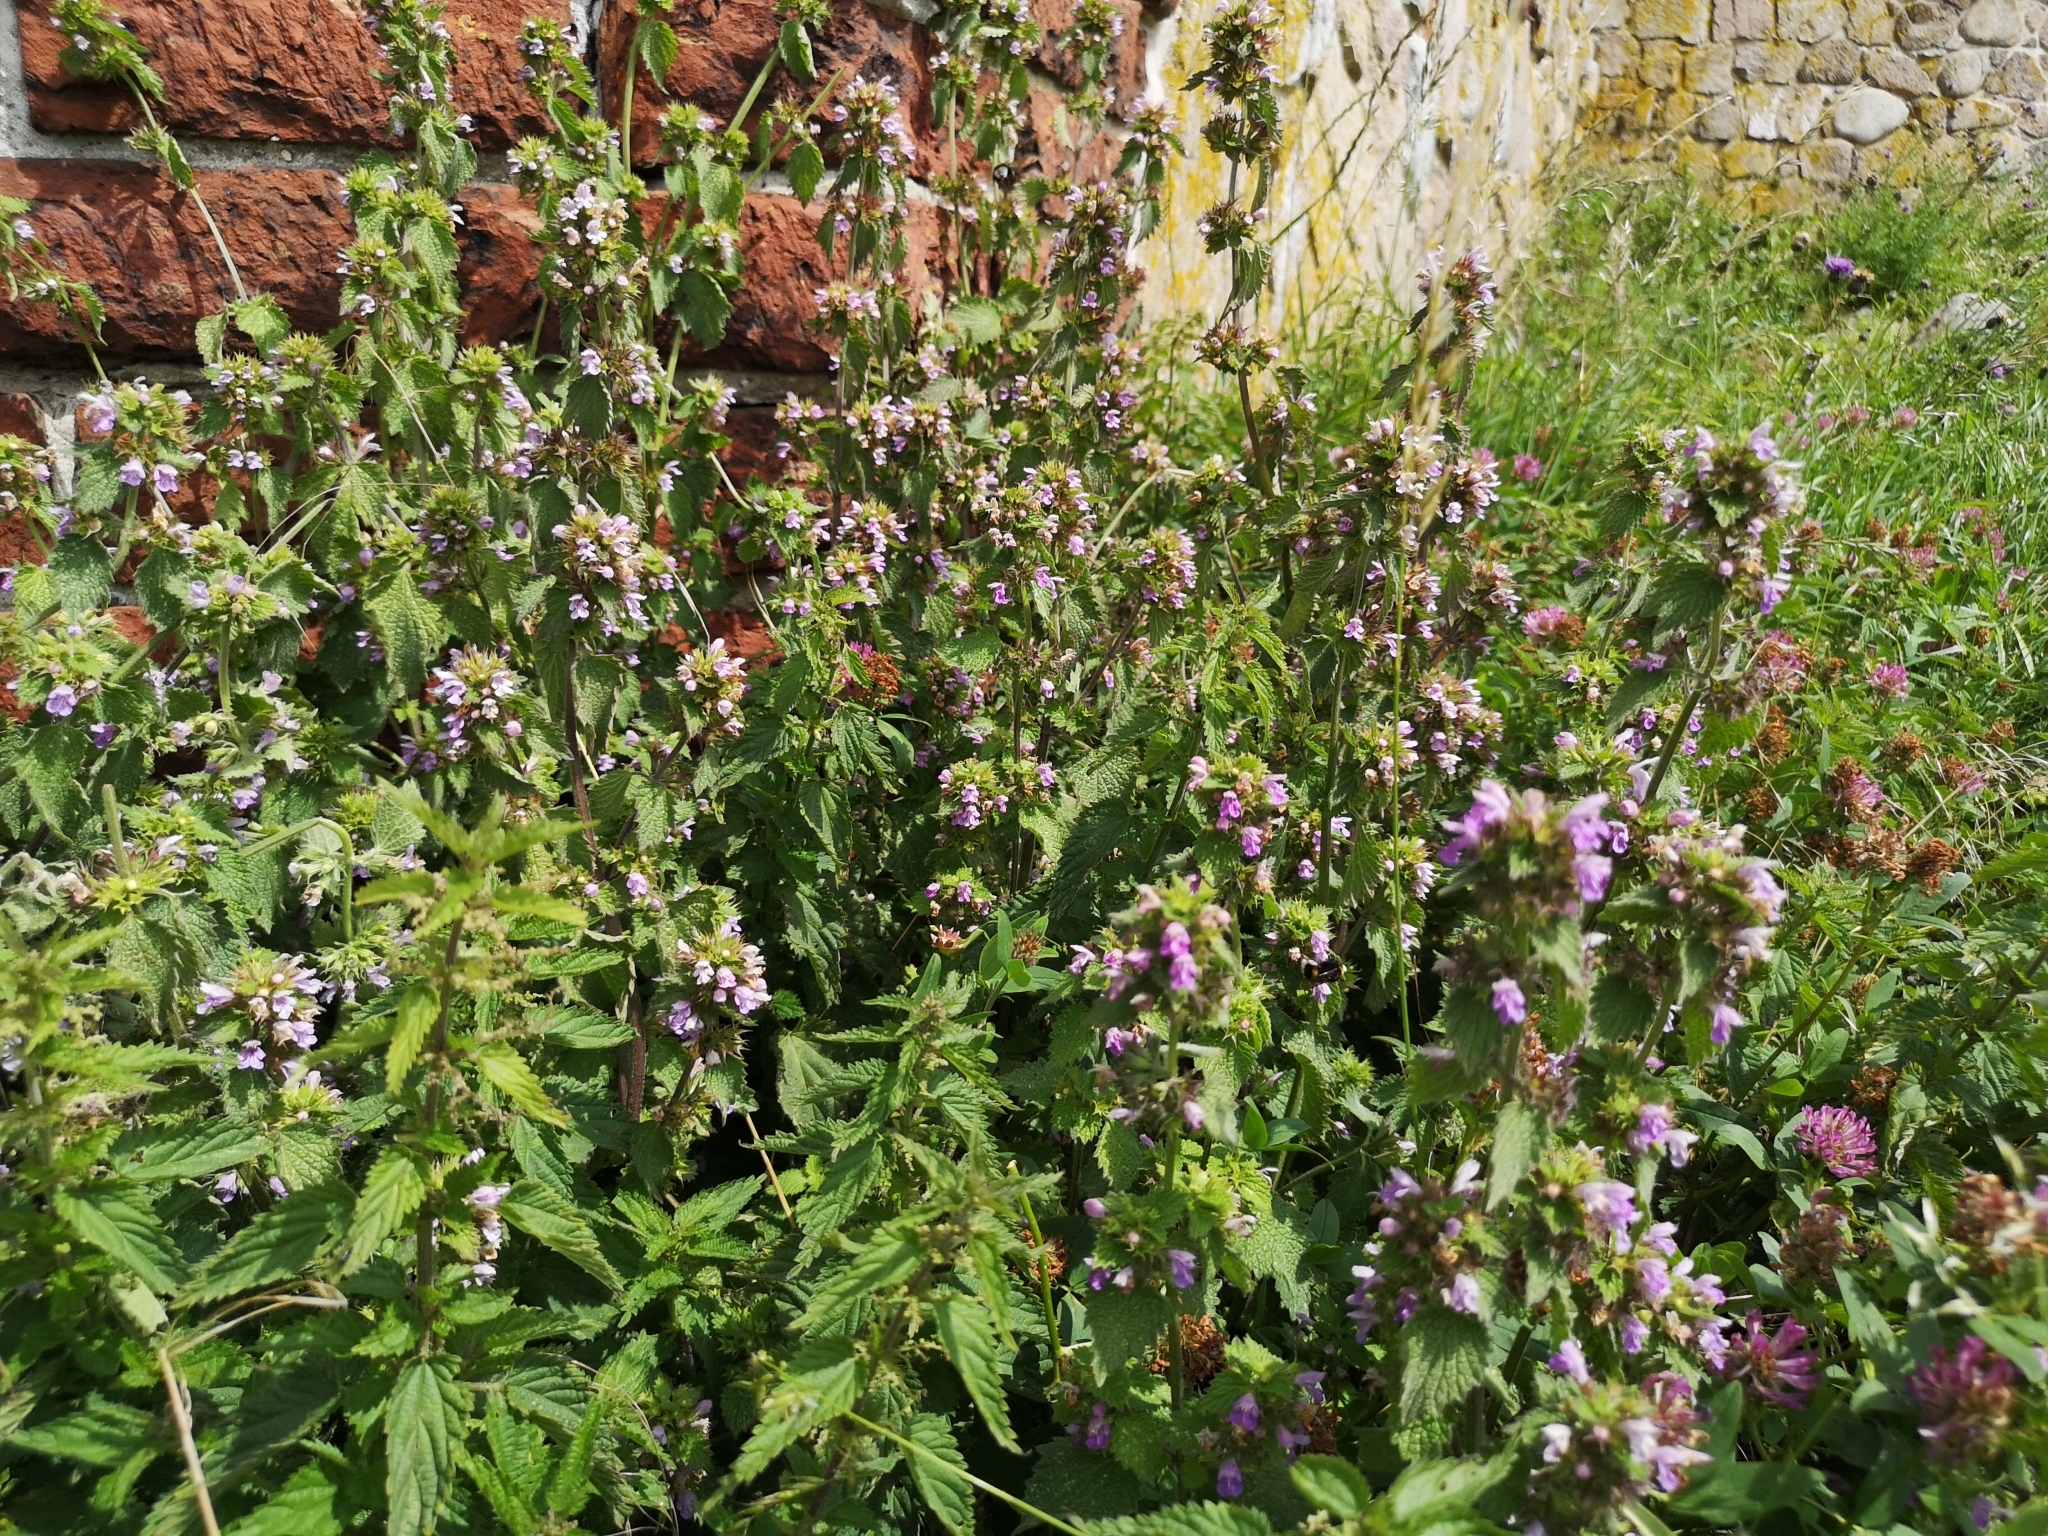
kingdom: Plantae
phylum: Tracheophyta
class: Magnoliopsida
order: Lamiales
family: Lamiaceae
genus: Ballota
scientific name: Ballota nigra
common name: Black horehound
